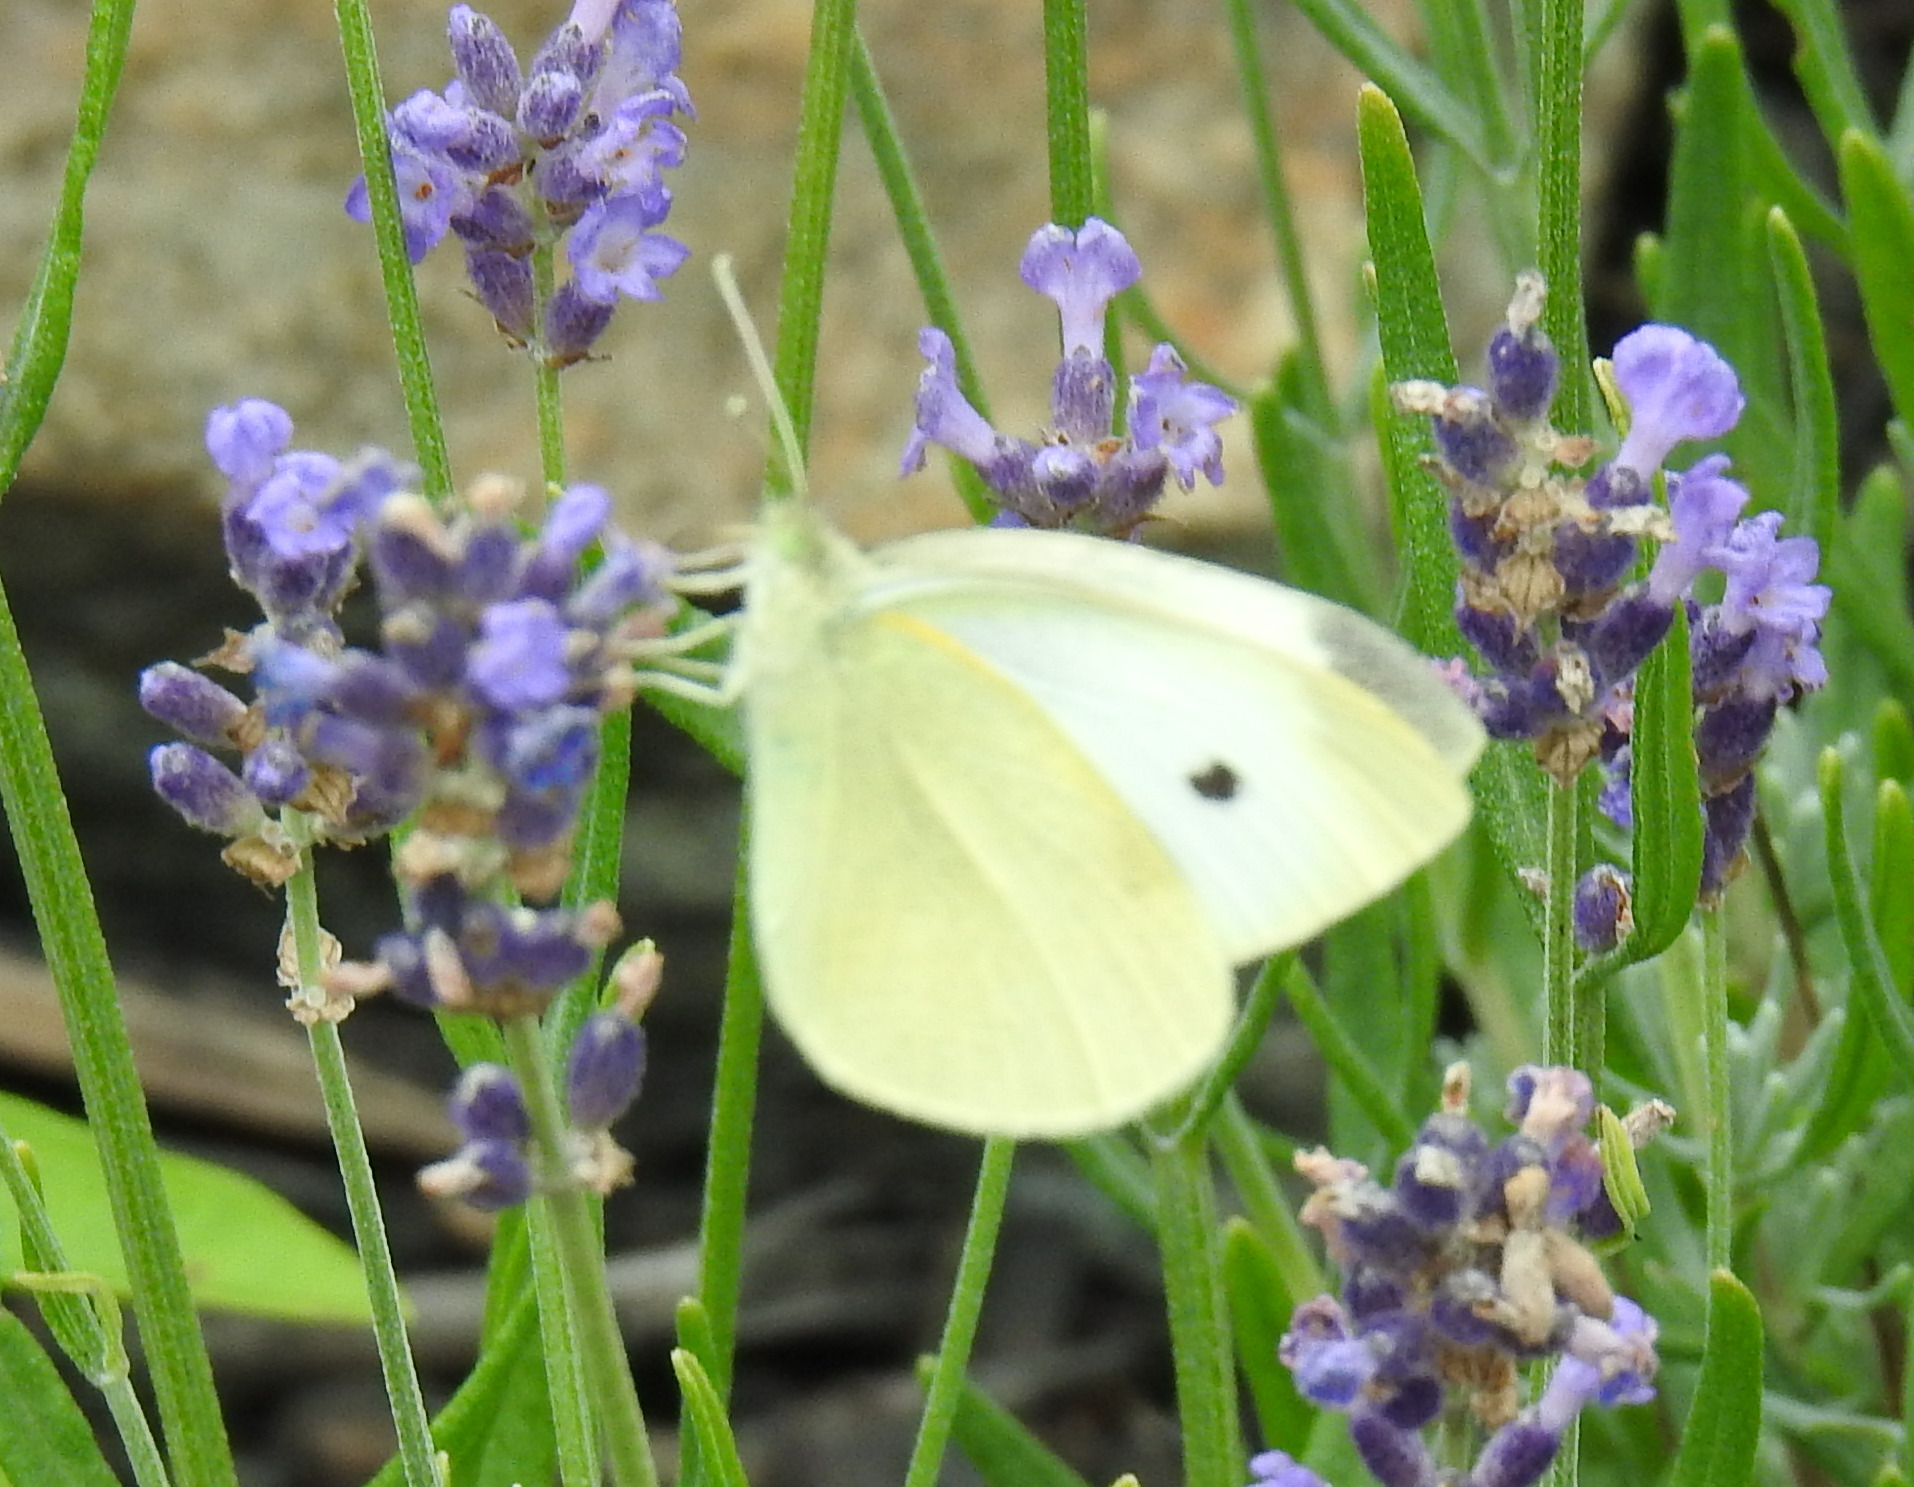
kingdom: Animalia
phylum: Arthropoda
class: Insecta
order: Lepidoptera
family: Pieridae
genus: Pieris
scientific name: Pieris rapae
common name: Small white
